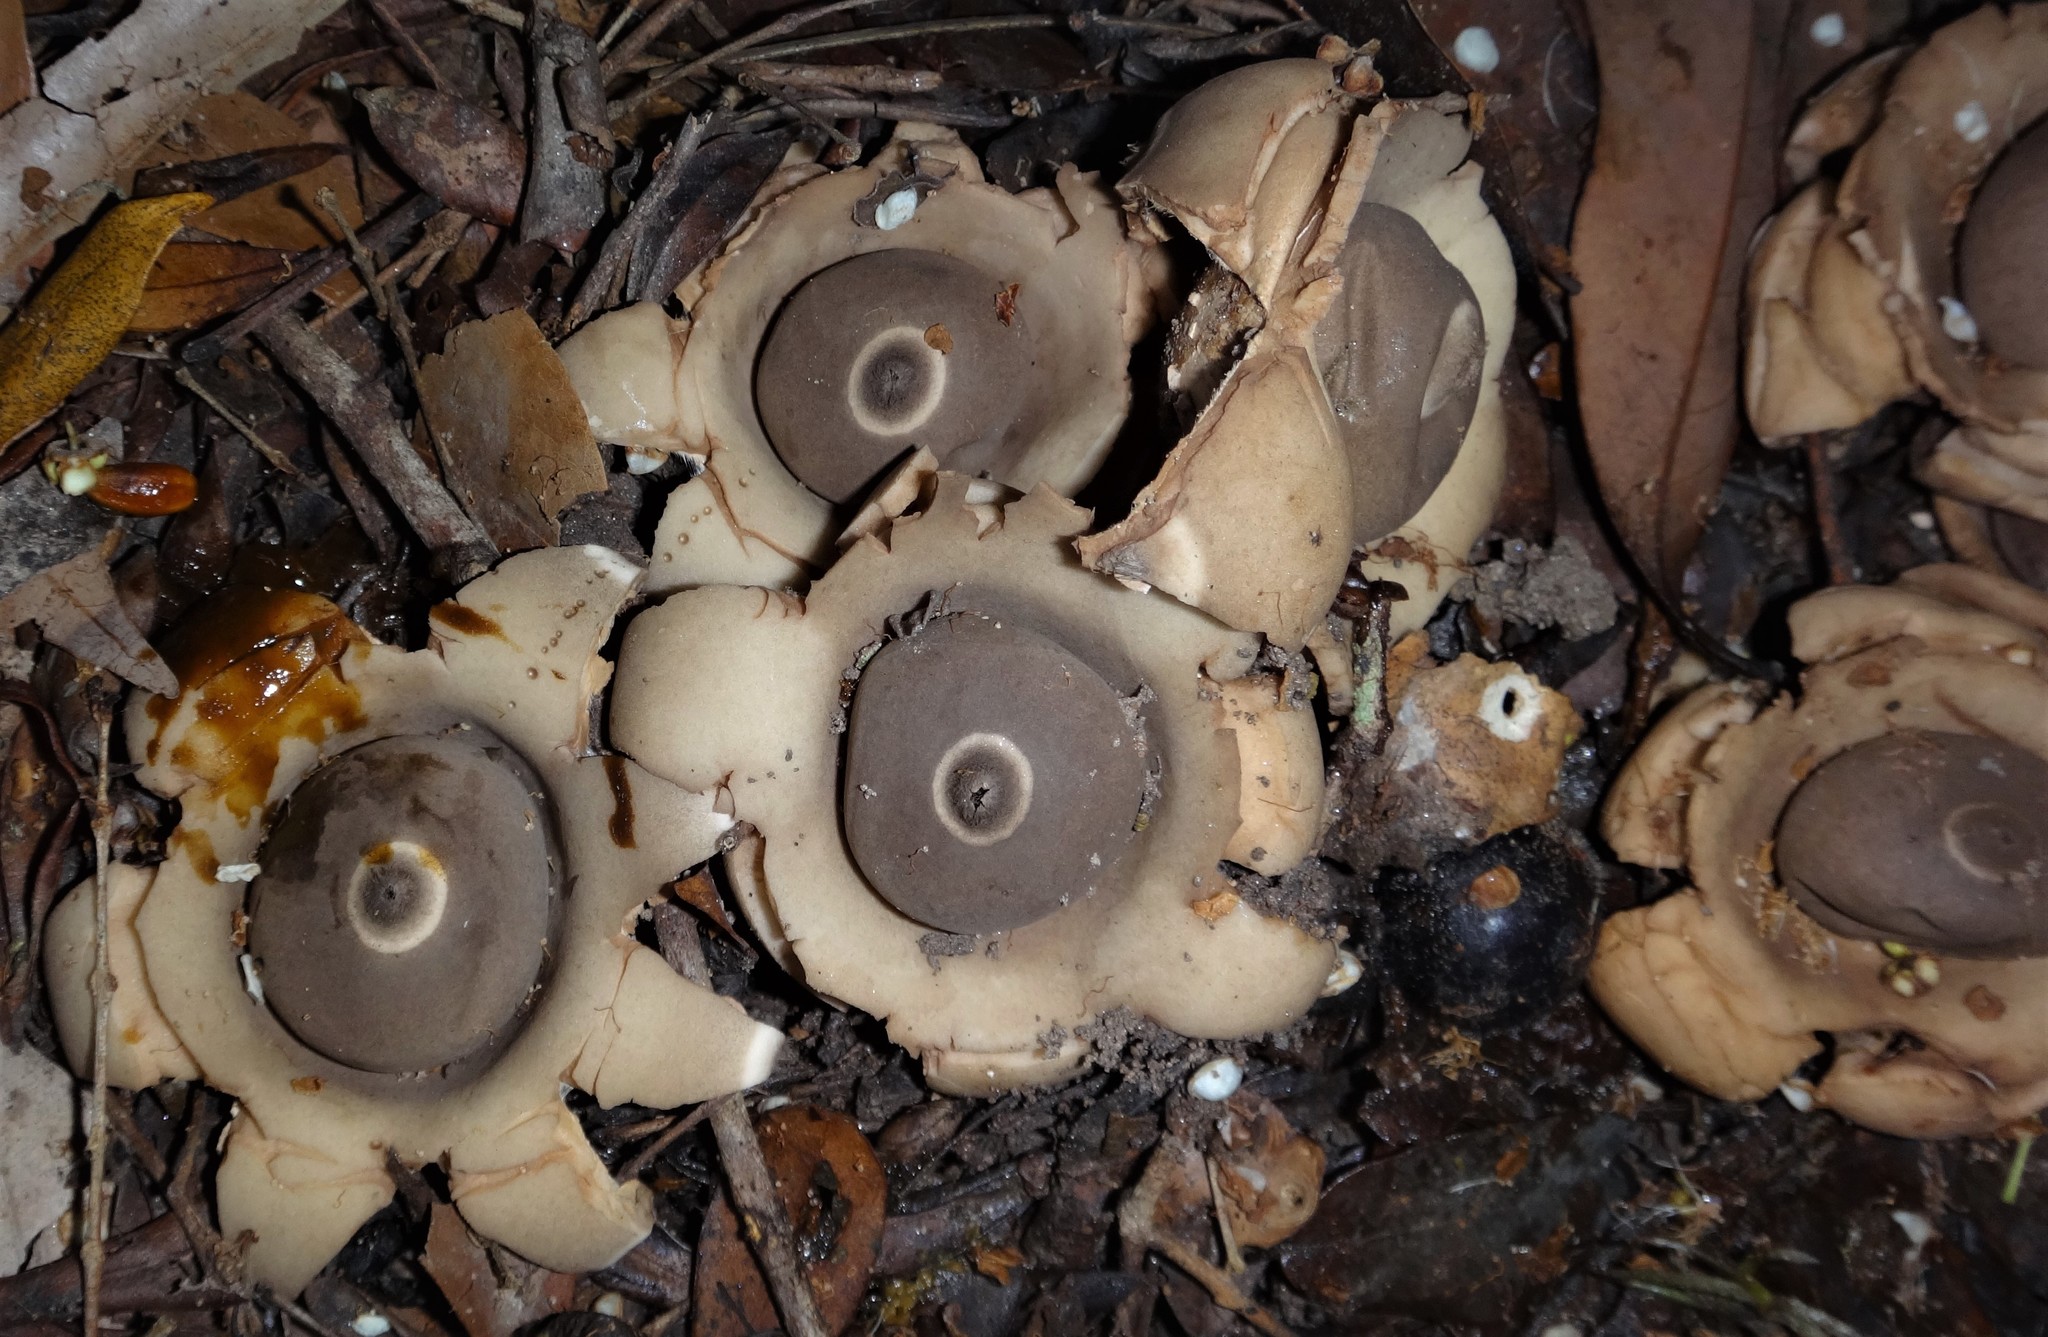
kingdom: Fungi
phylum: Basidiomycota
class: Agaricomycetes
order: Geastrales
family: Geastraceae
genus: Geastrum
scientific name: Geastrum
